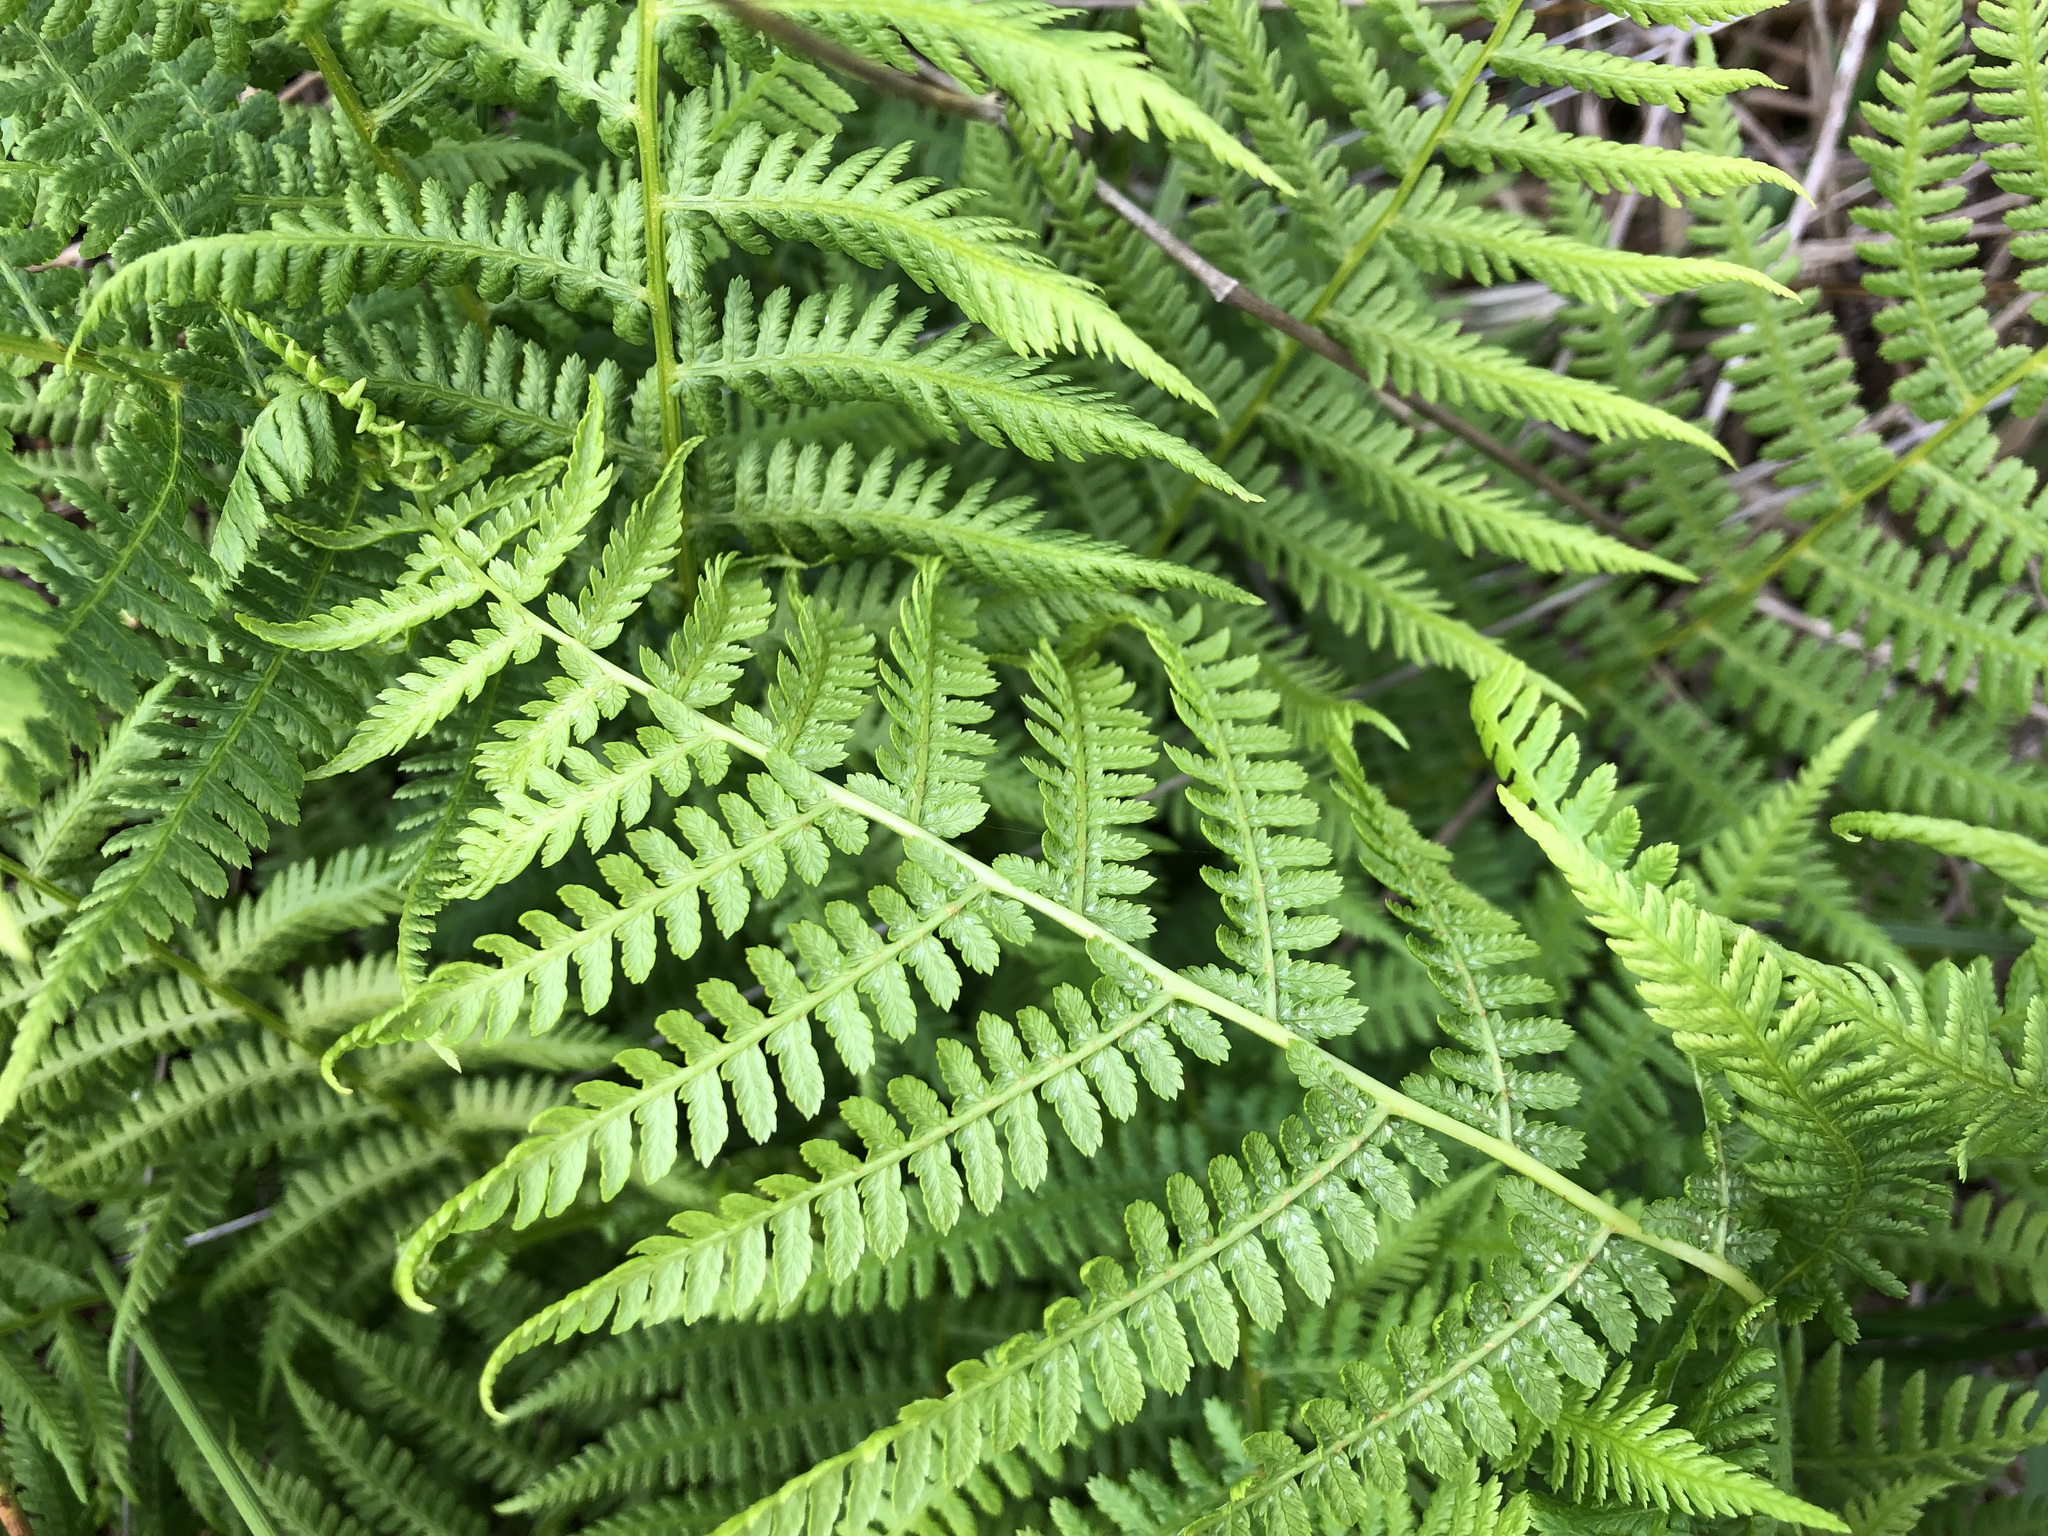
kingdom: Plantae
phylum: Tracheophyta
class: Polypodiopsida
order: Polypodiales
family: Athyriaceae
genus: Athyrium
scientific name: Athyrium filix-femina
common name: Lady fern
